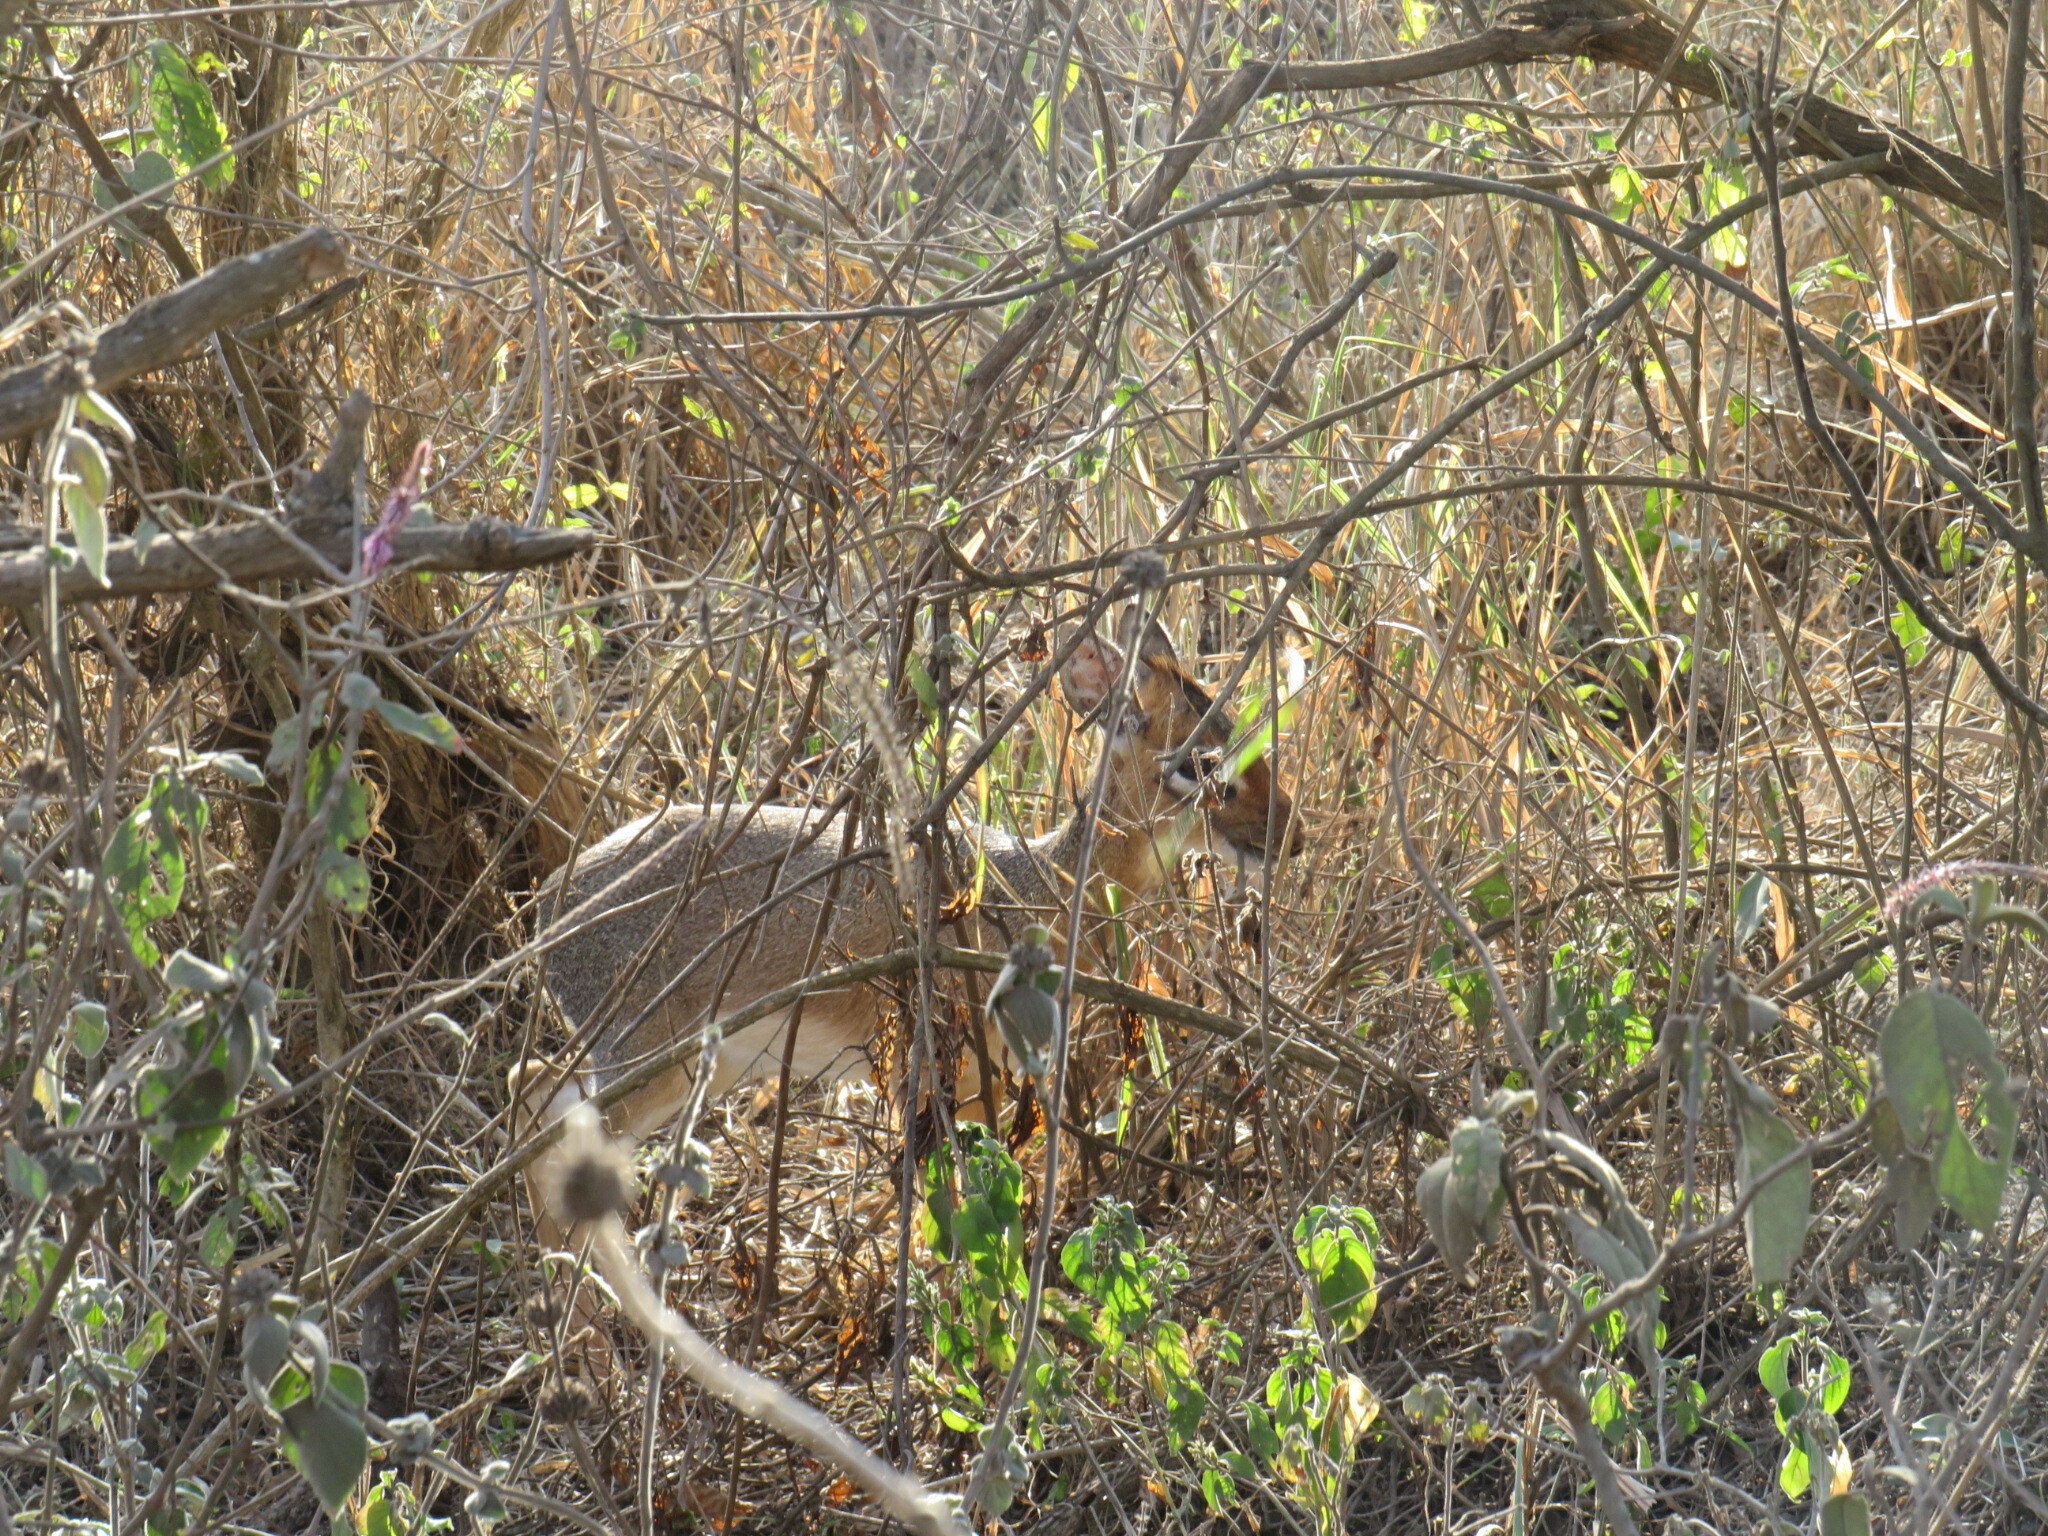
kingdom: Animalia
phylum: Chordata
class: Mammalia
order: Artiodactyla
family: Bovidae
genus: Madoqua
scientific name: Madoqua
